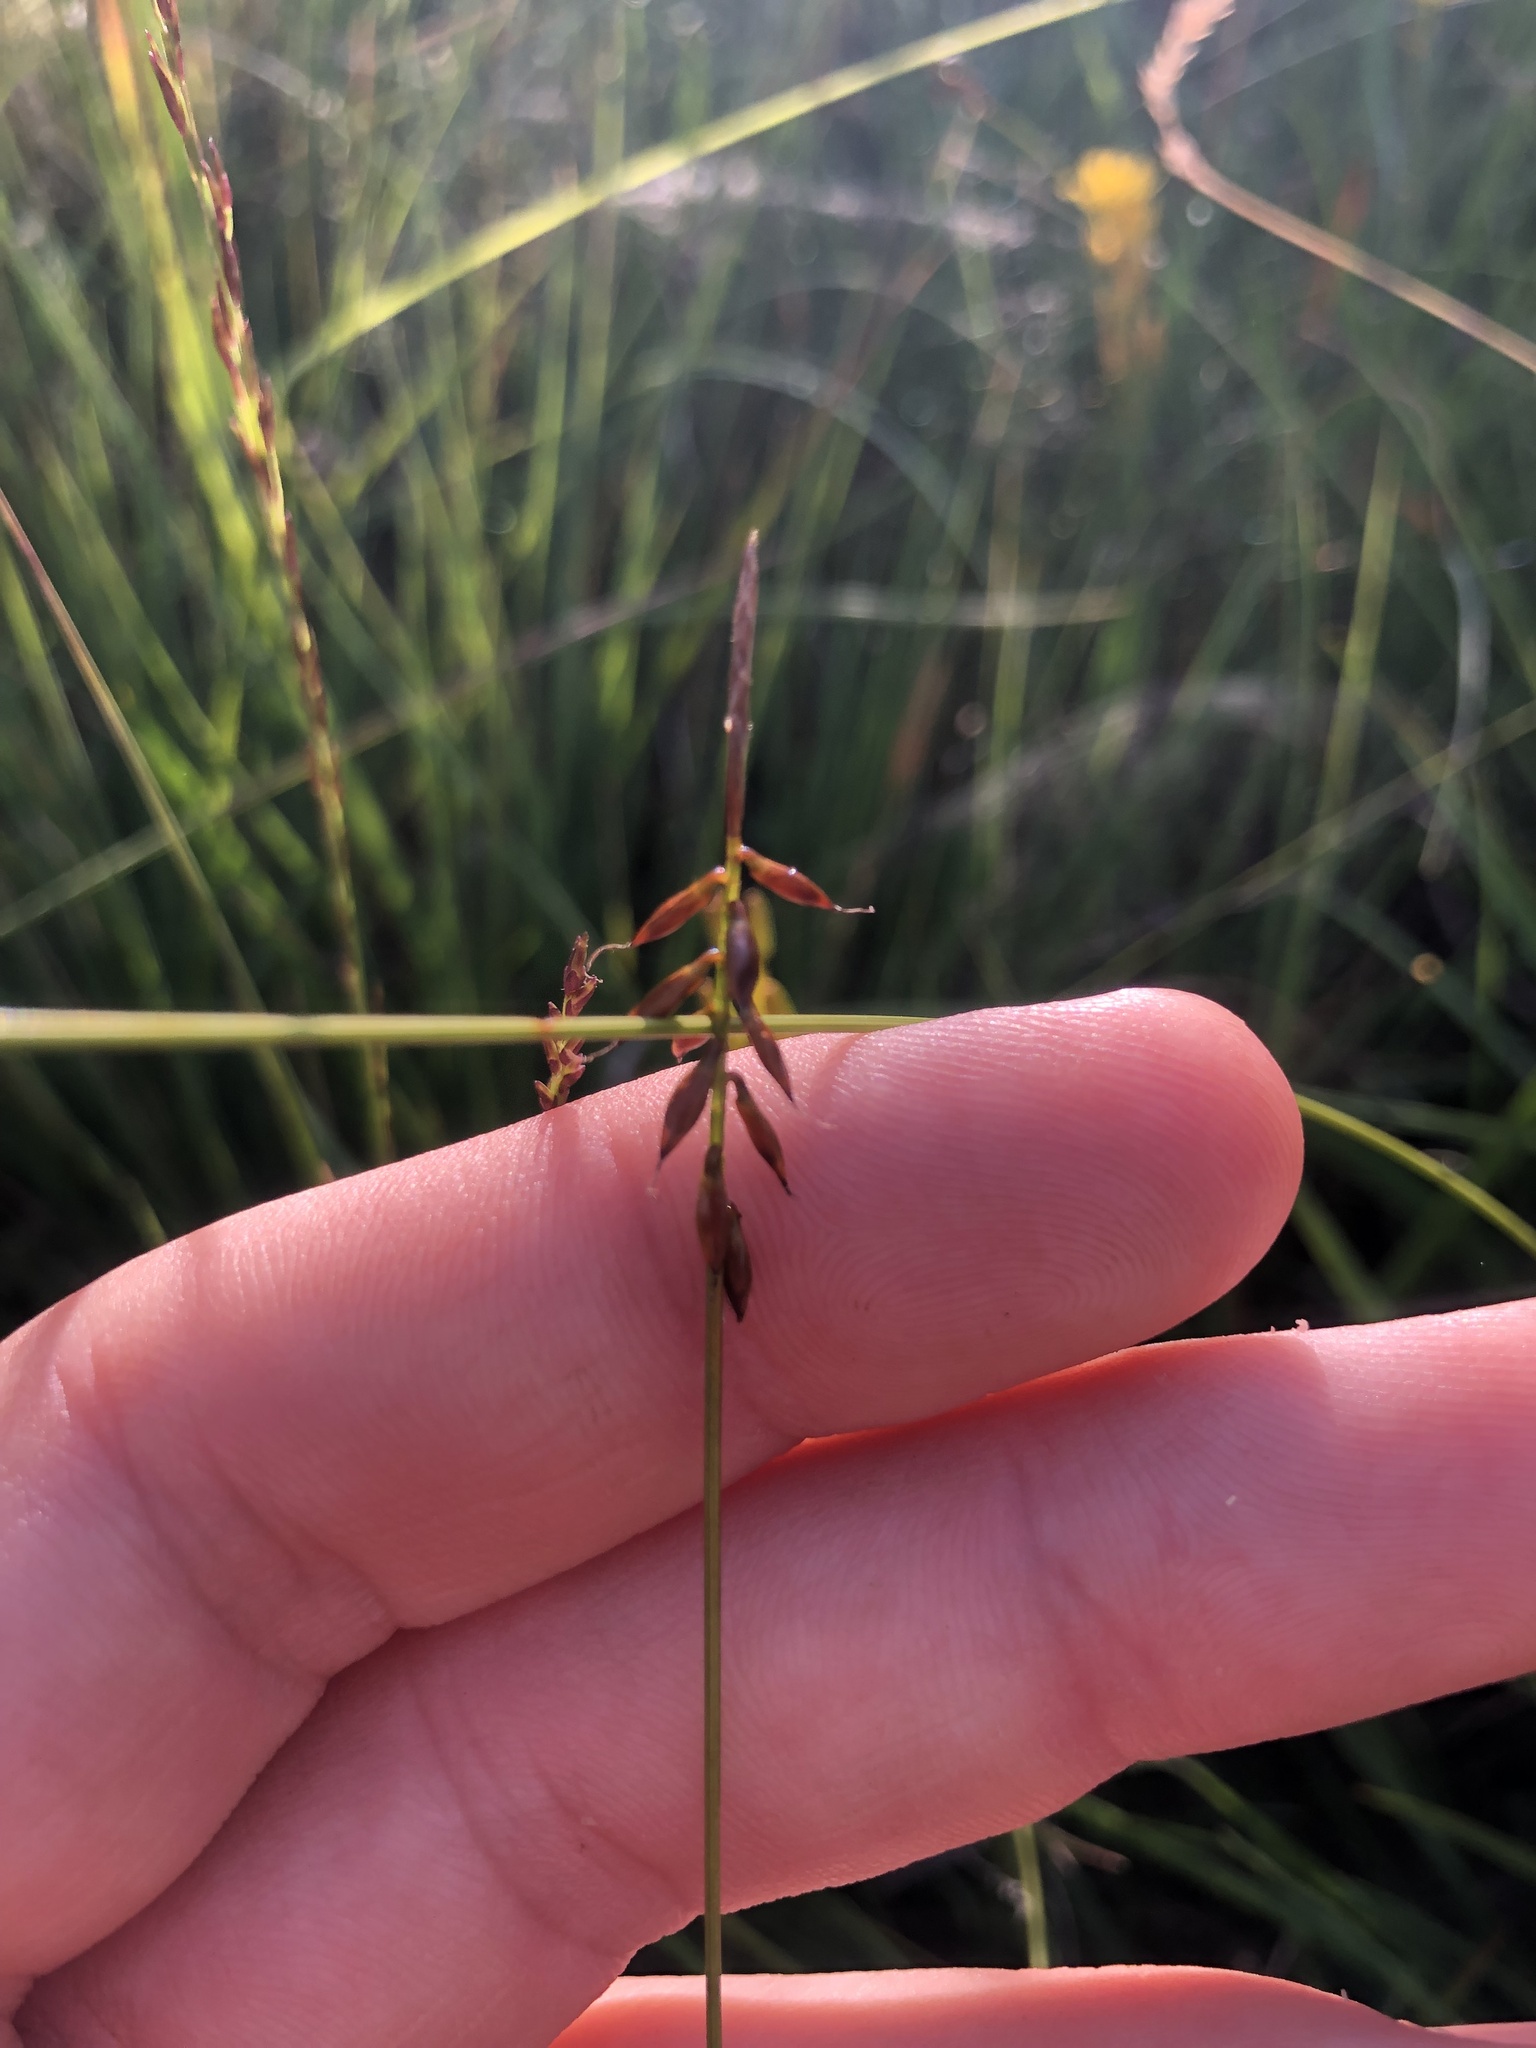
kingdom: Plantae
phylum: Tracheophyta
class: Liliopsida
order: Poales
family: Cyperaceae
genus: Carex
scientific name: Carex pulicaris
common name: Flea sedge
